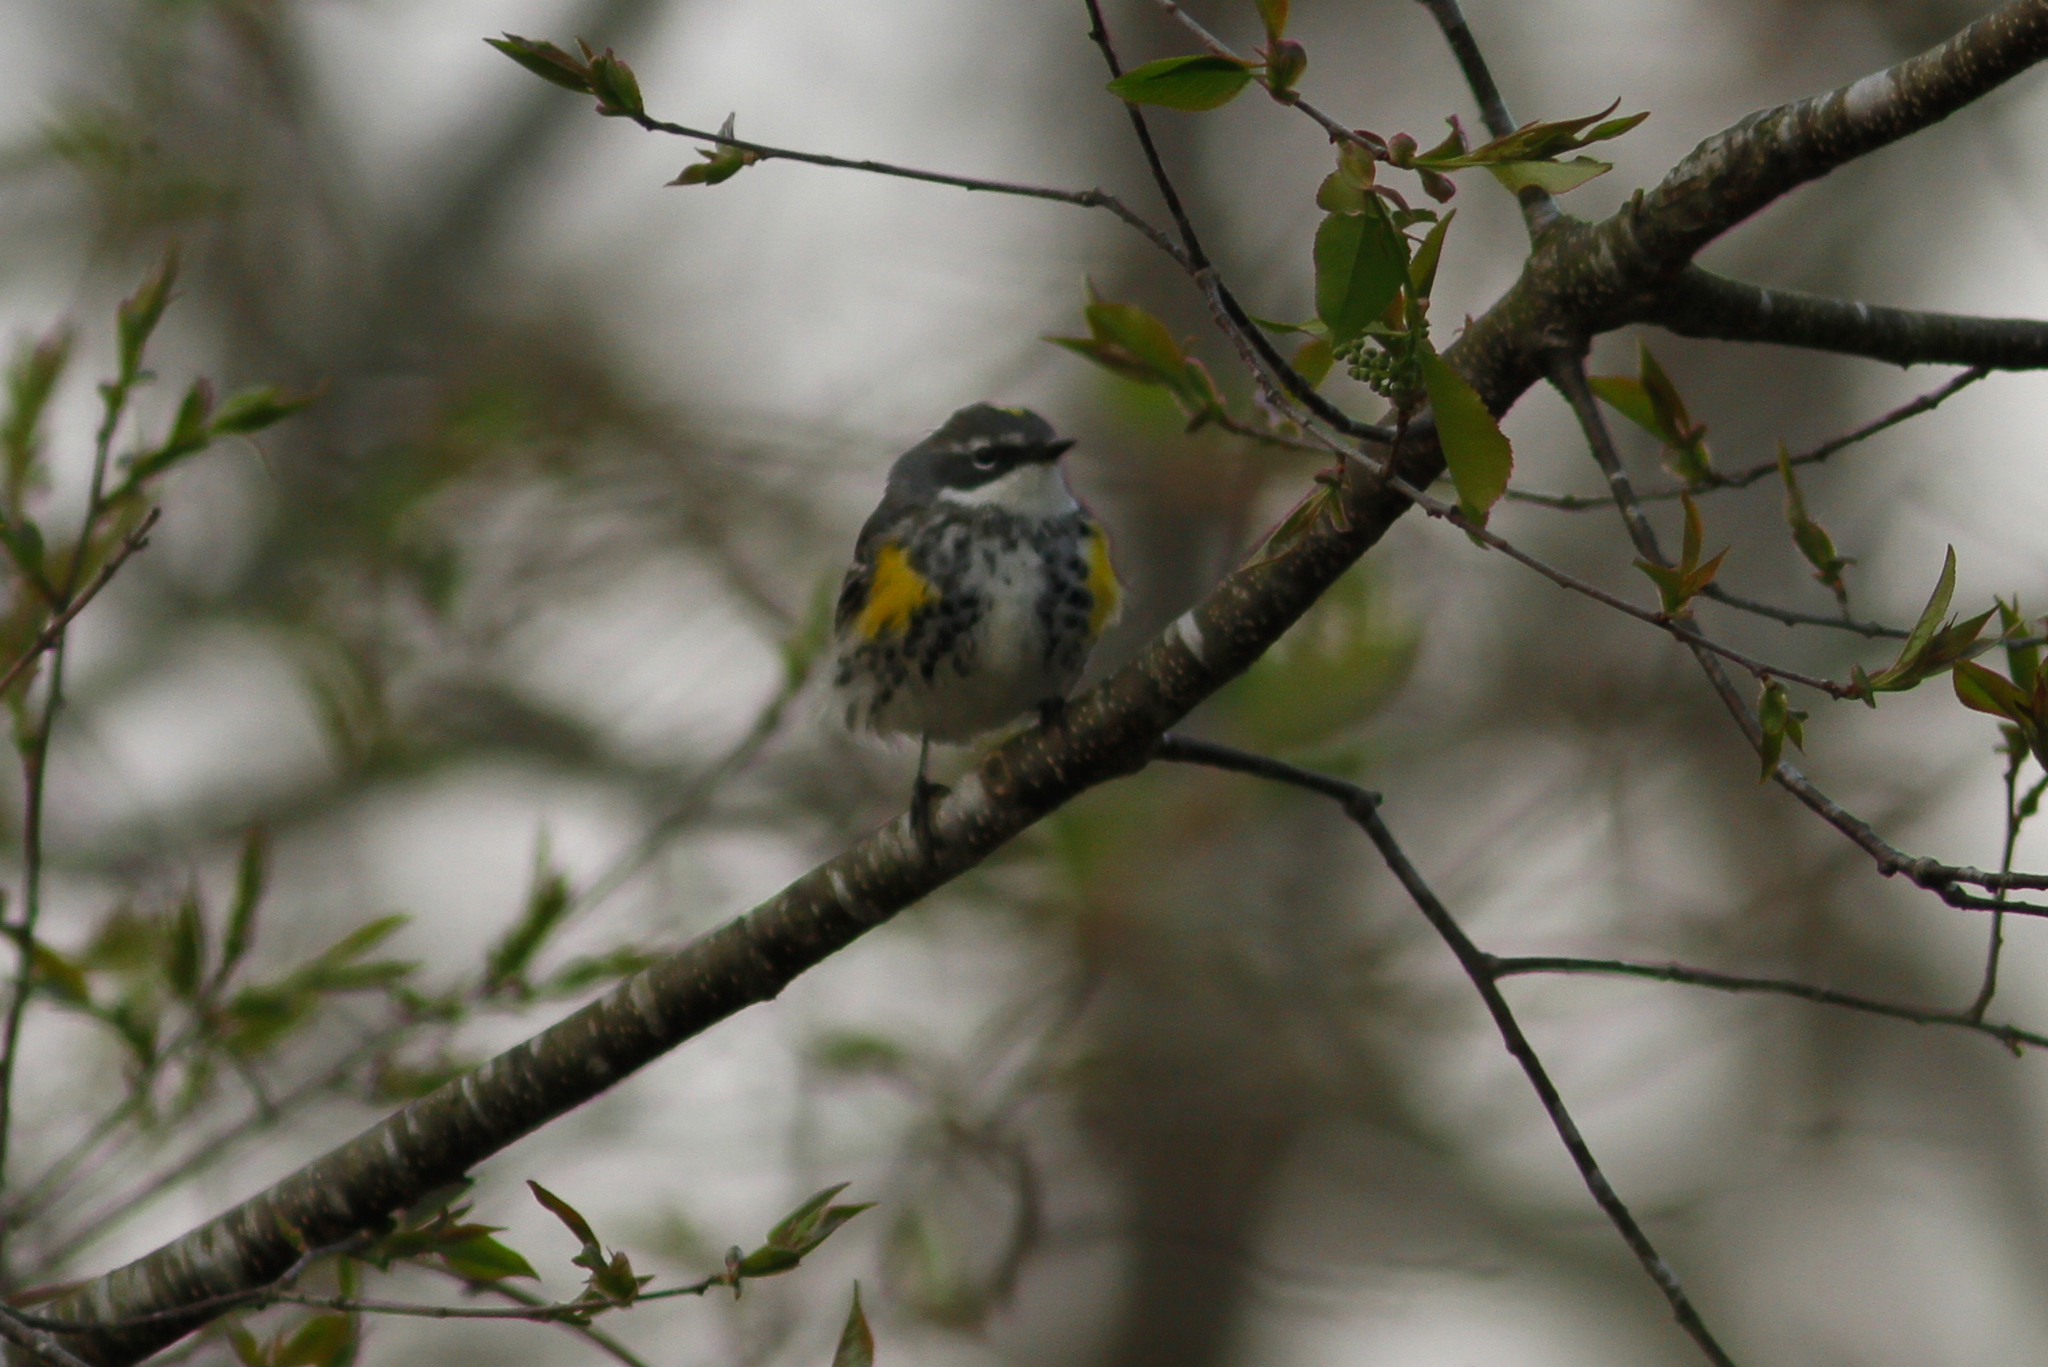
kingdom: Animalia
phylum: Chordata
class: Aves
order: Passeriformes
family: Parulidae
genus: Setophaga
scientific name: Setophaga coronata
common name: Myrtle warbler
